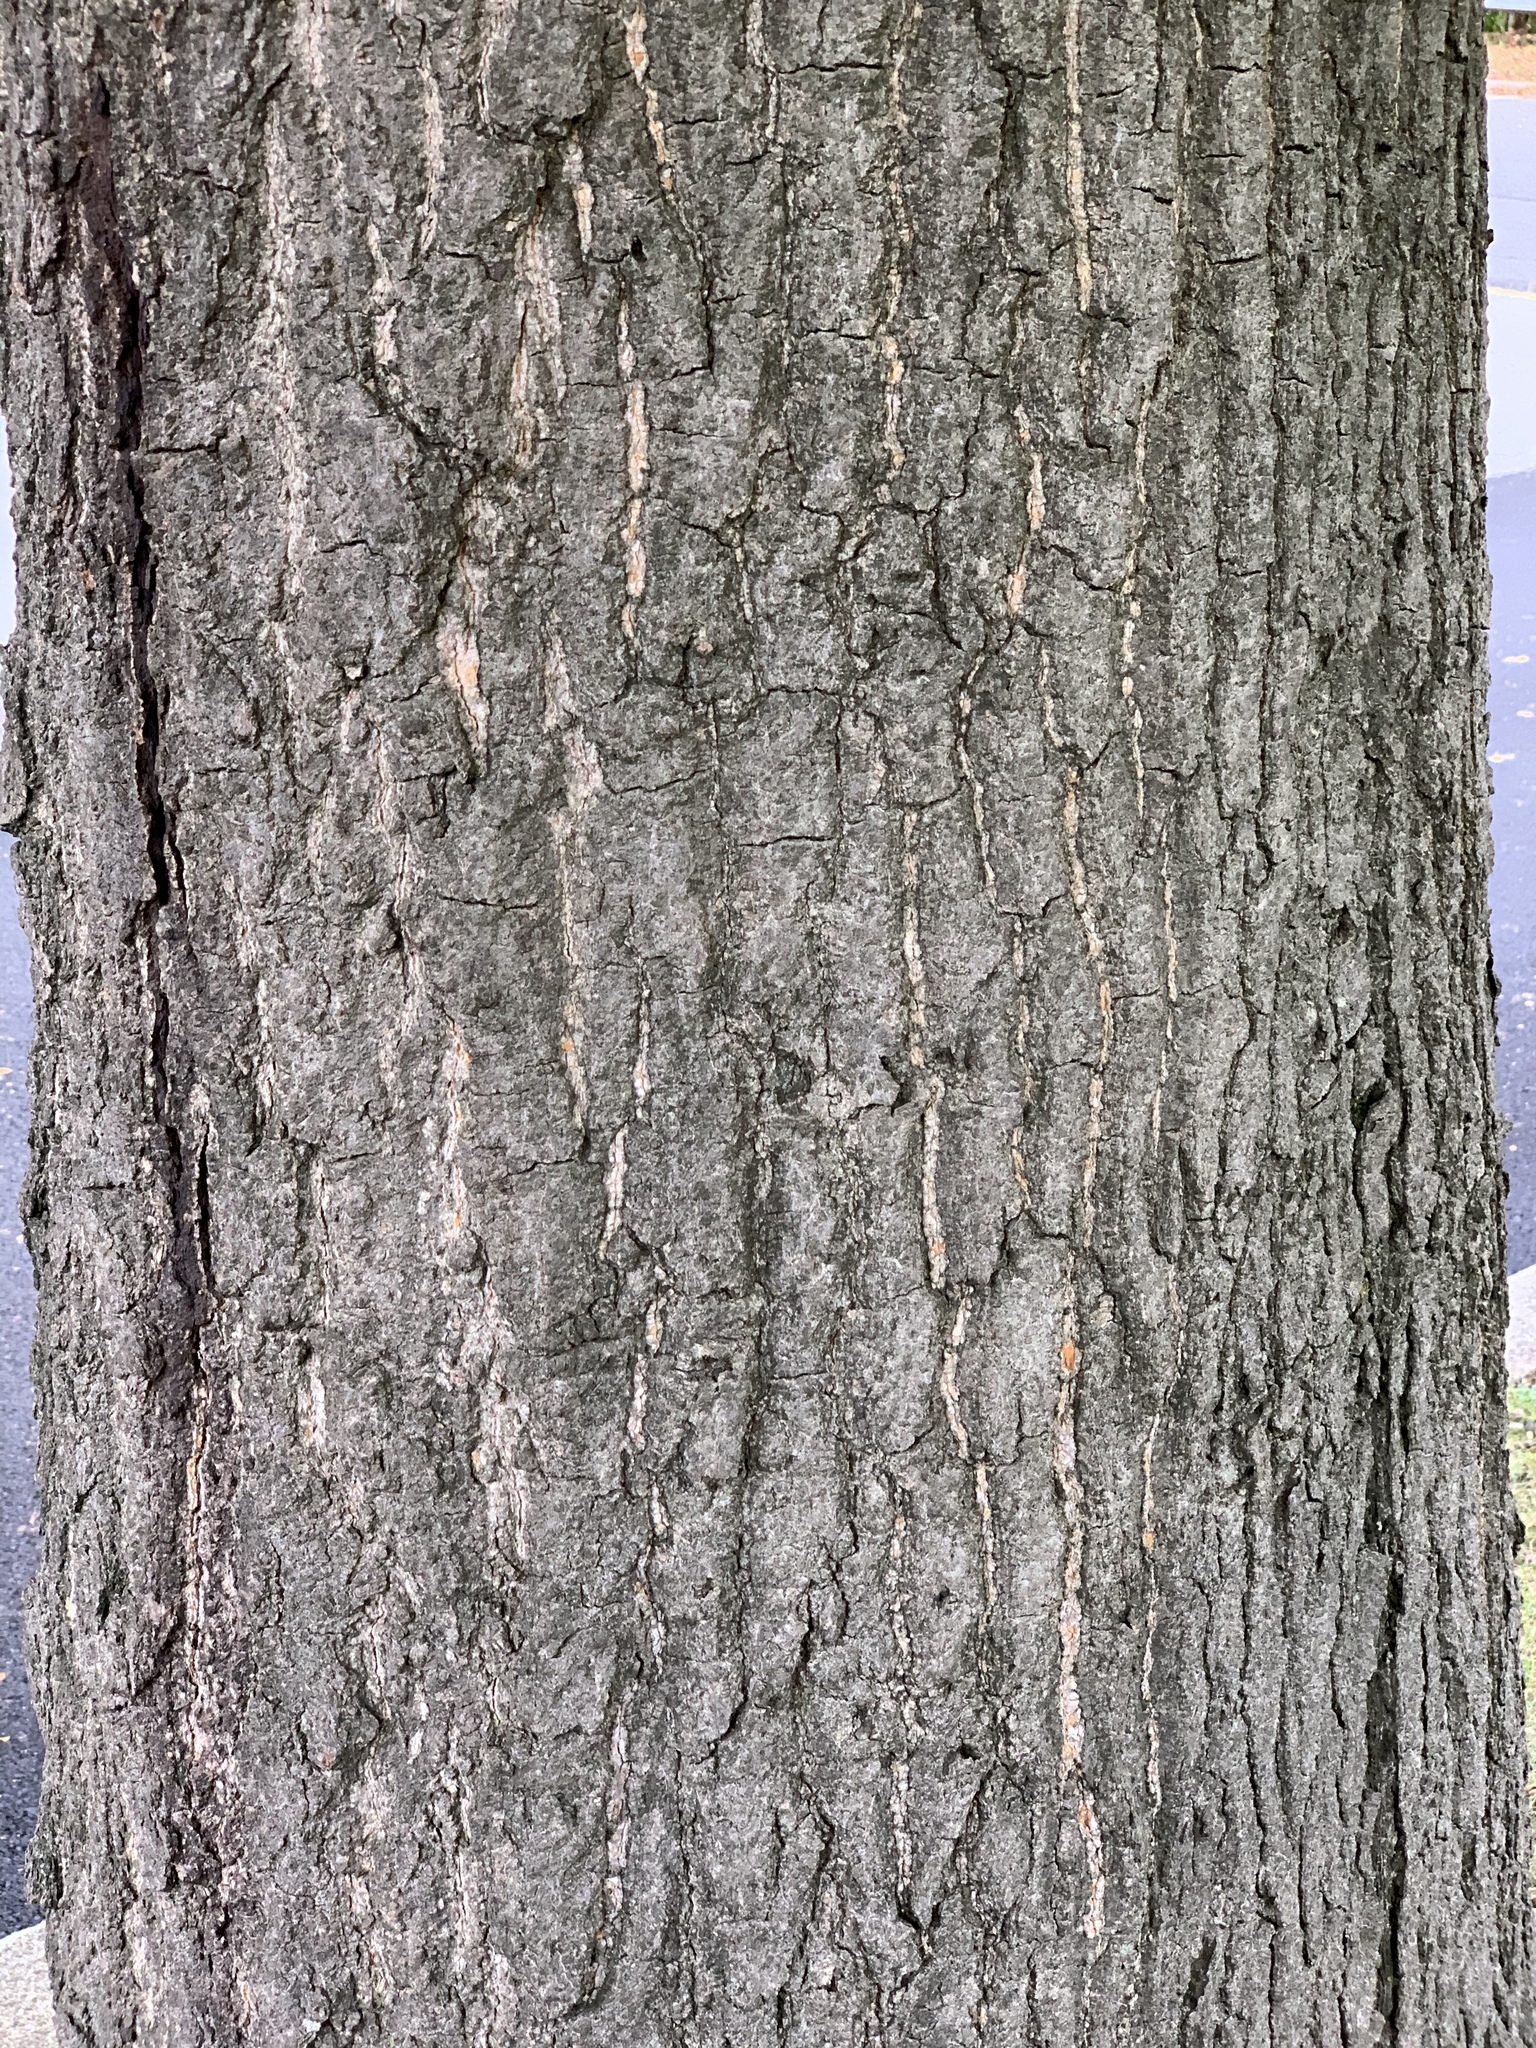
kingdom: Plantae
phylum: Tracheophyta
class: Magnoliopsida
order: Fagales
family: Fagaceae
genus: Quercus
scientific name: Quercus palustris
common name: Pin oak
